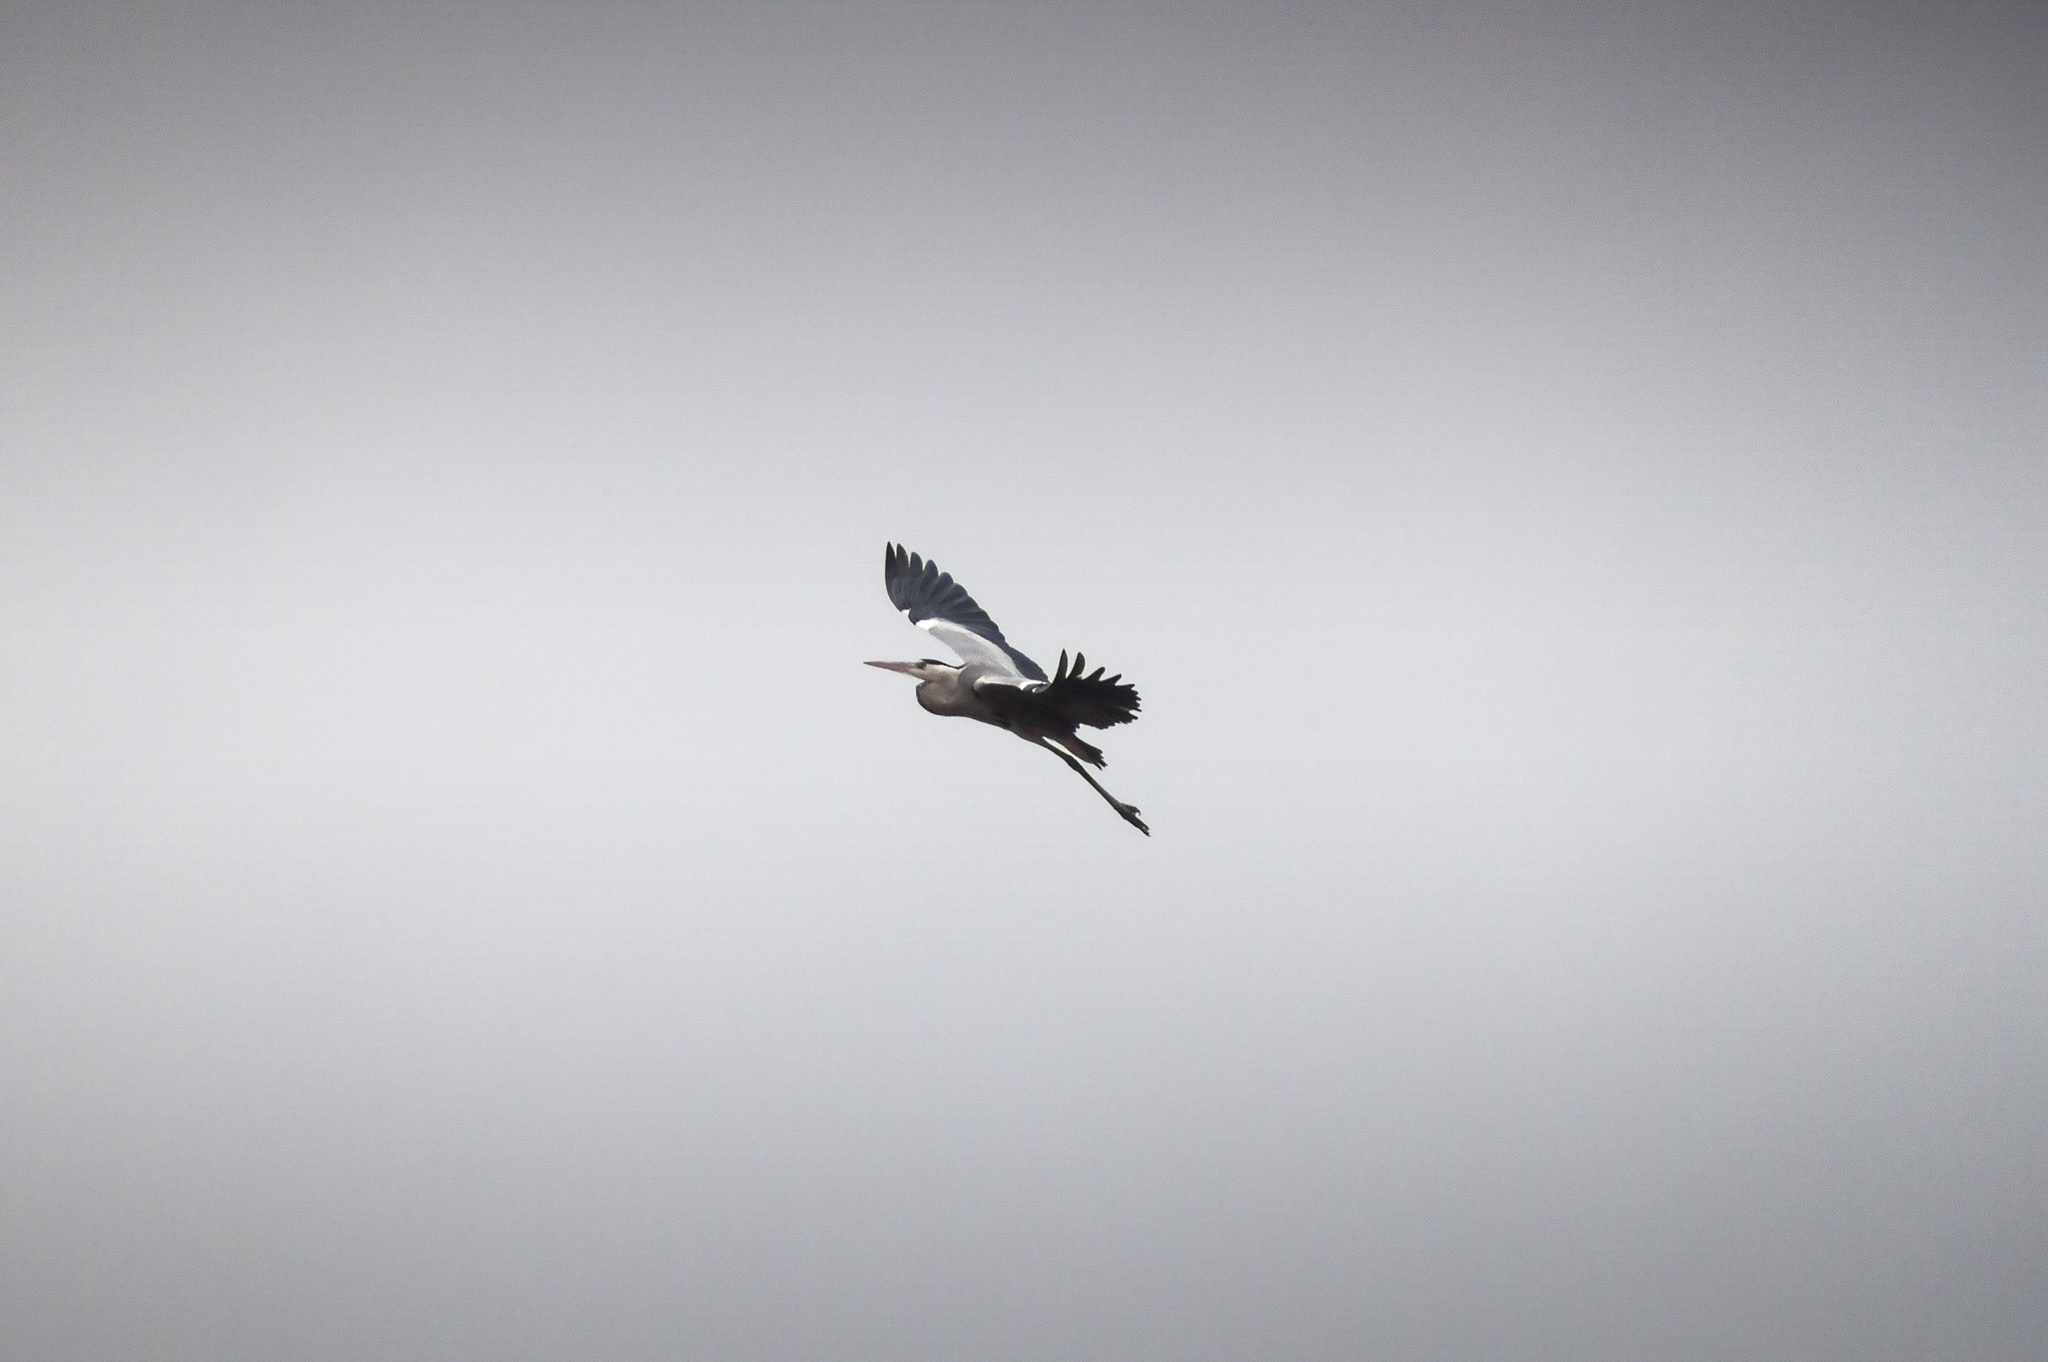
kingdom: Animalia
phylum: Chordata
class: Aves
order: Pelecaniformes
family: Ardeidae
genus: Ardea
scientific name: Ardea cinerea
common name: Grey heron
